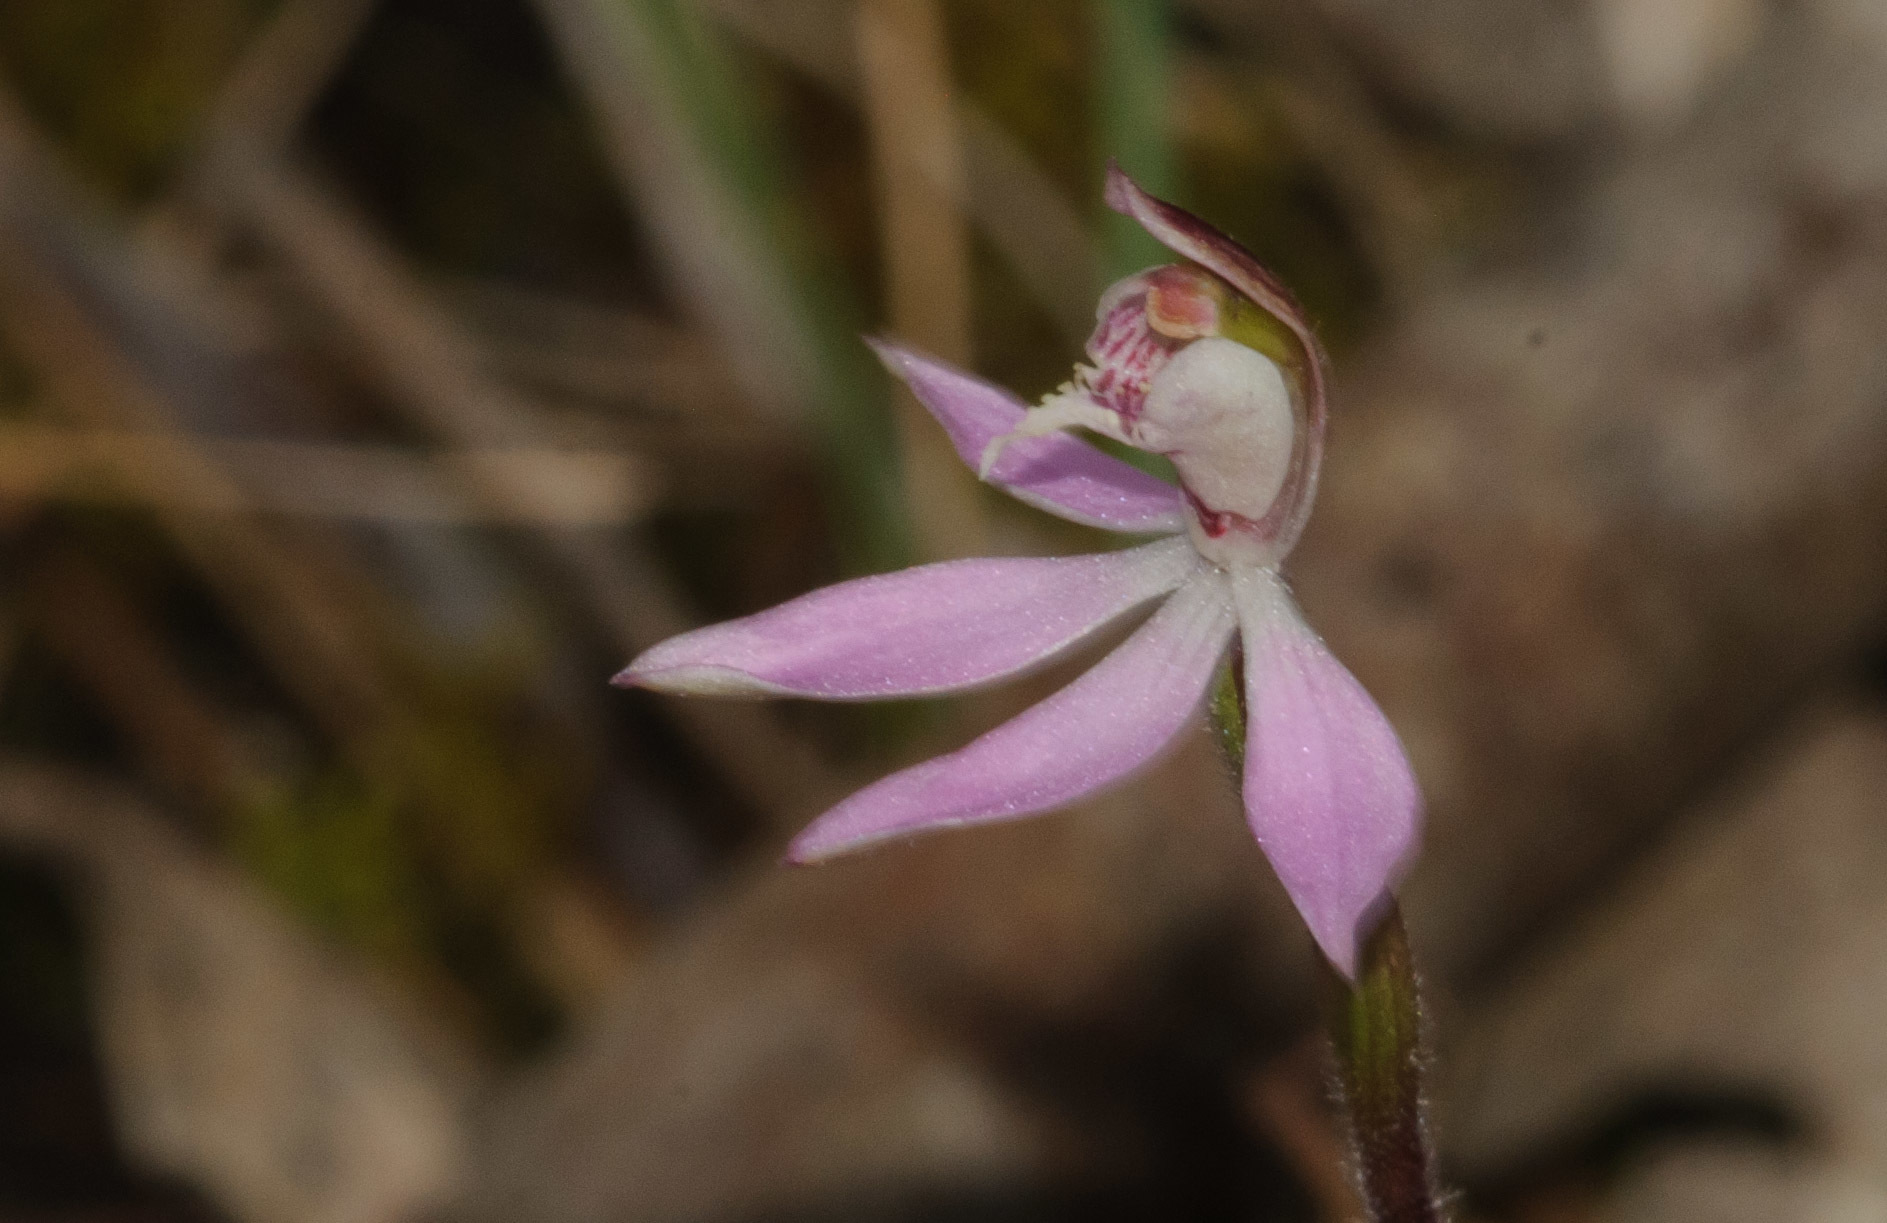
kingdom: Plantae
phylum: Tracheophyta
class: Liliopsida
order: Asparagales
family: Orchidaceae
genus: Caladenia
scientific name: Caladenia carnea
